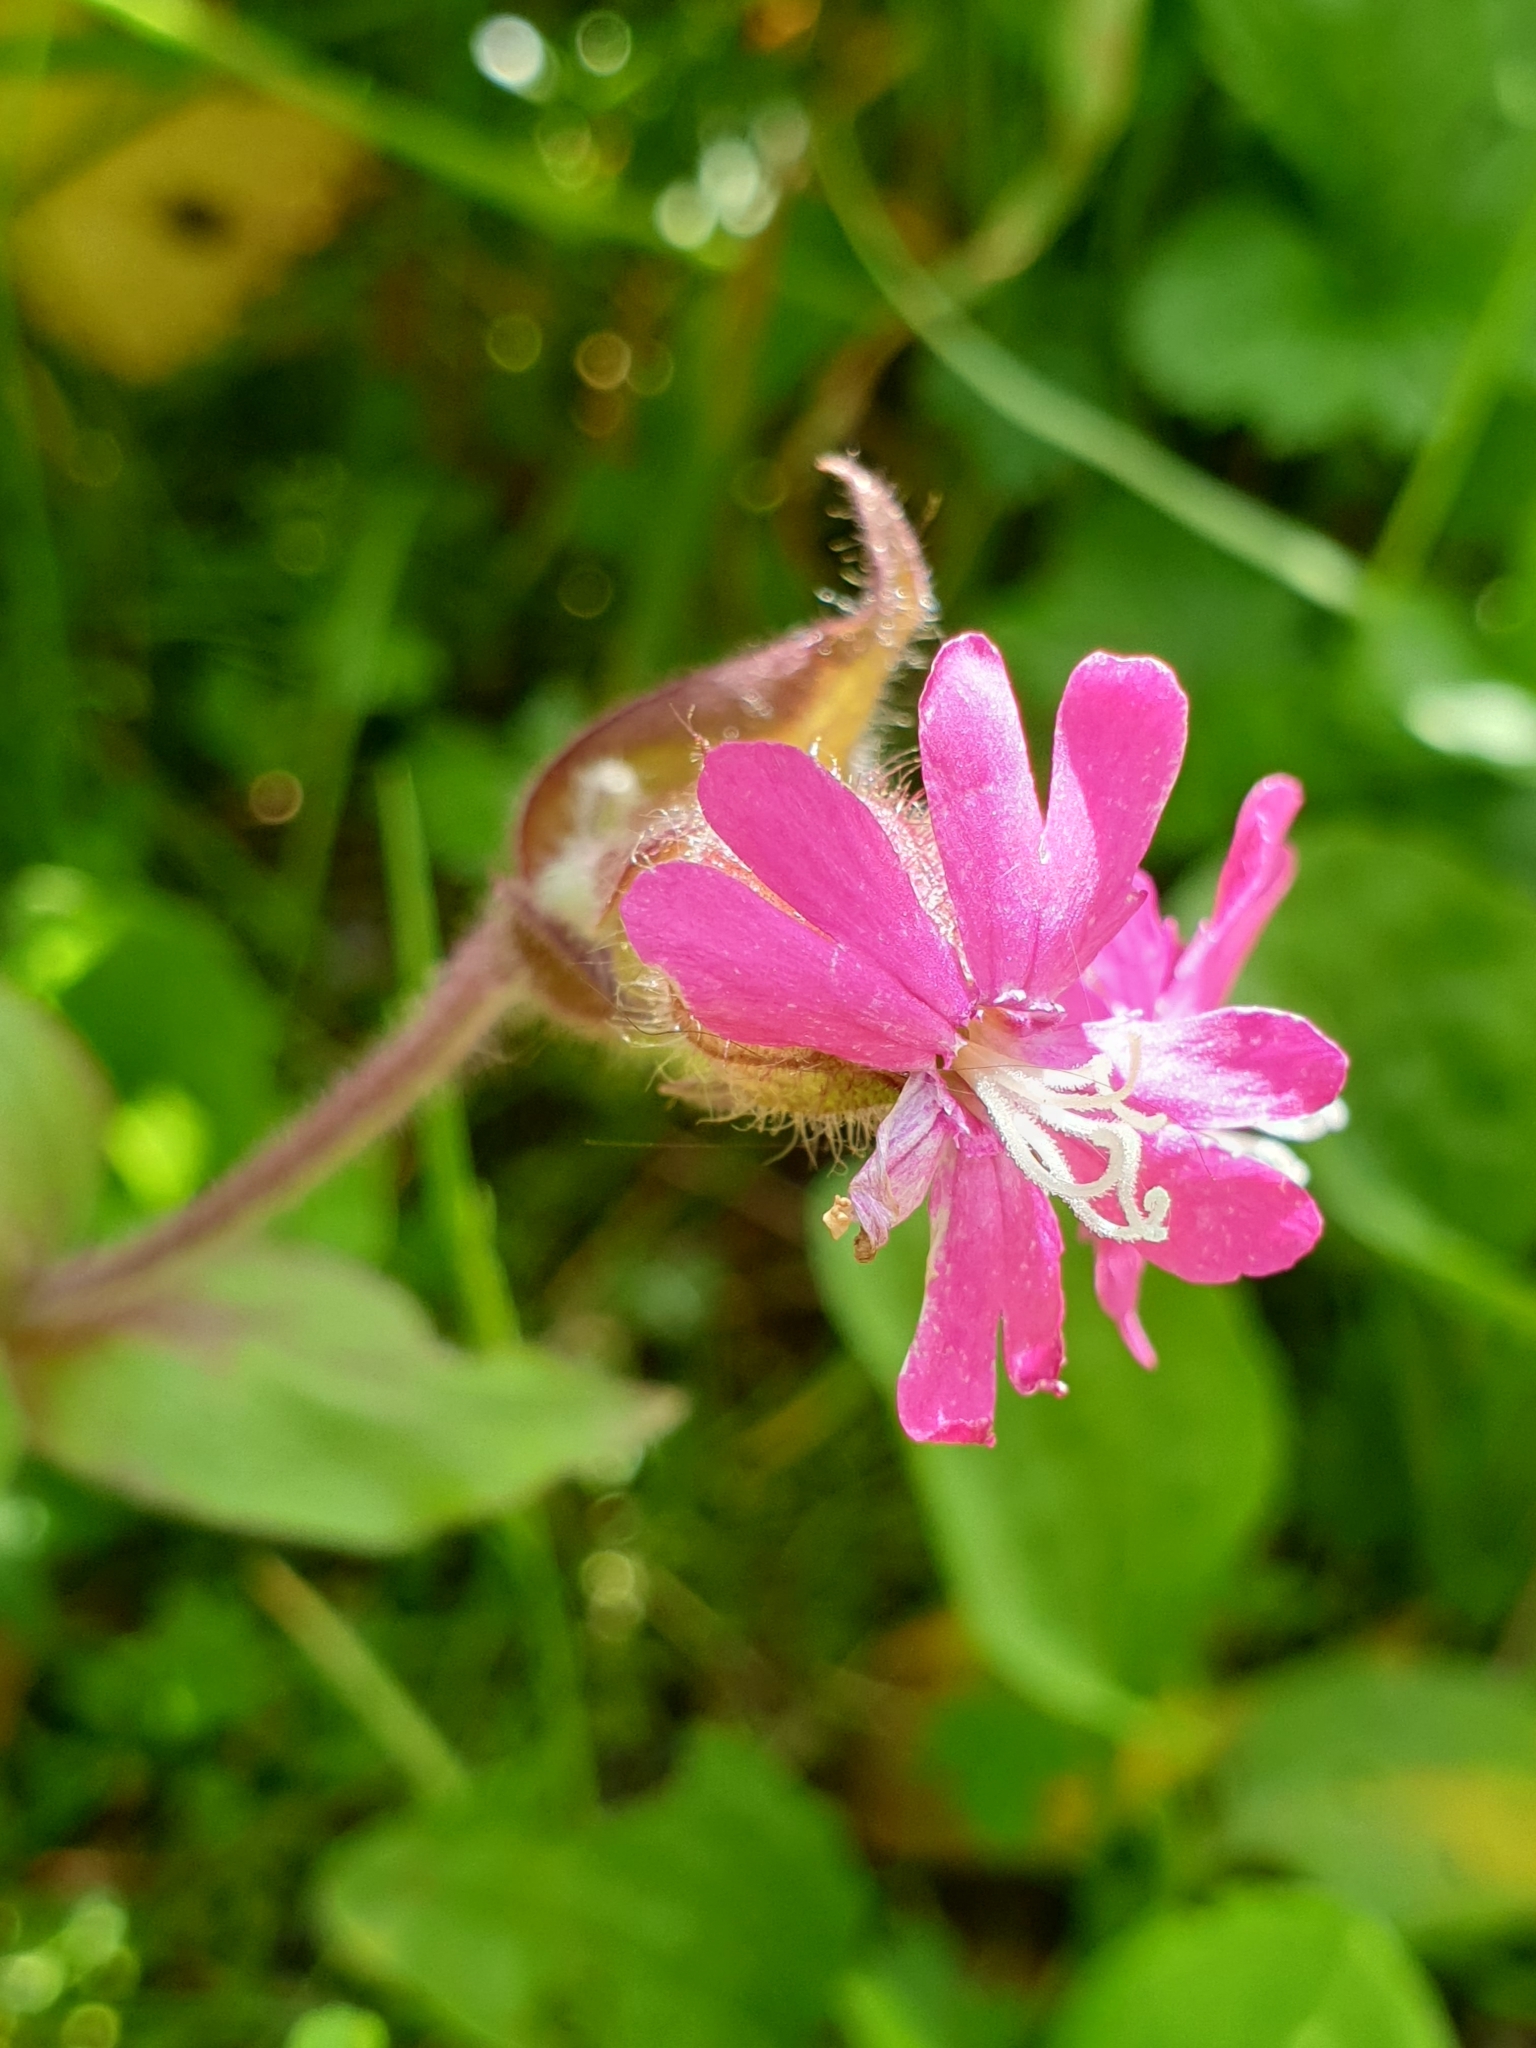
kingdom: Plantae
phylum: Tracheophyta
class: Magnoliopsida
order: Caryophyllales
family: Caryophyllaceae
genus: Silene
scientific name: Silene dioica
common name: Red campion
